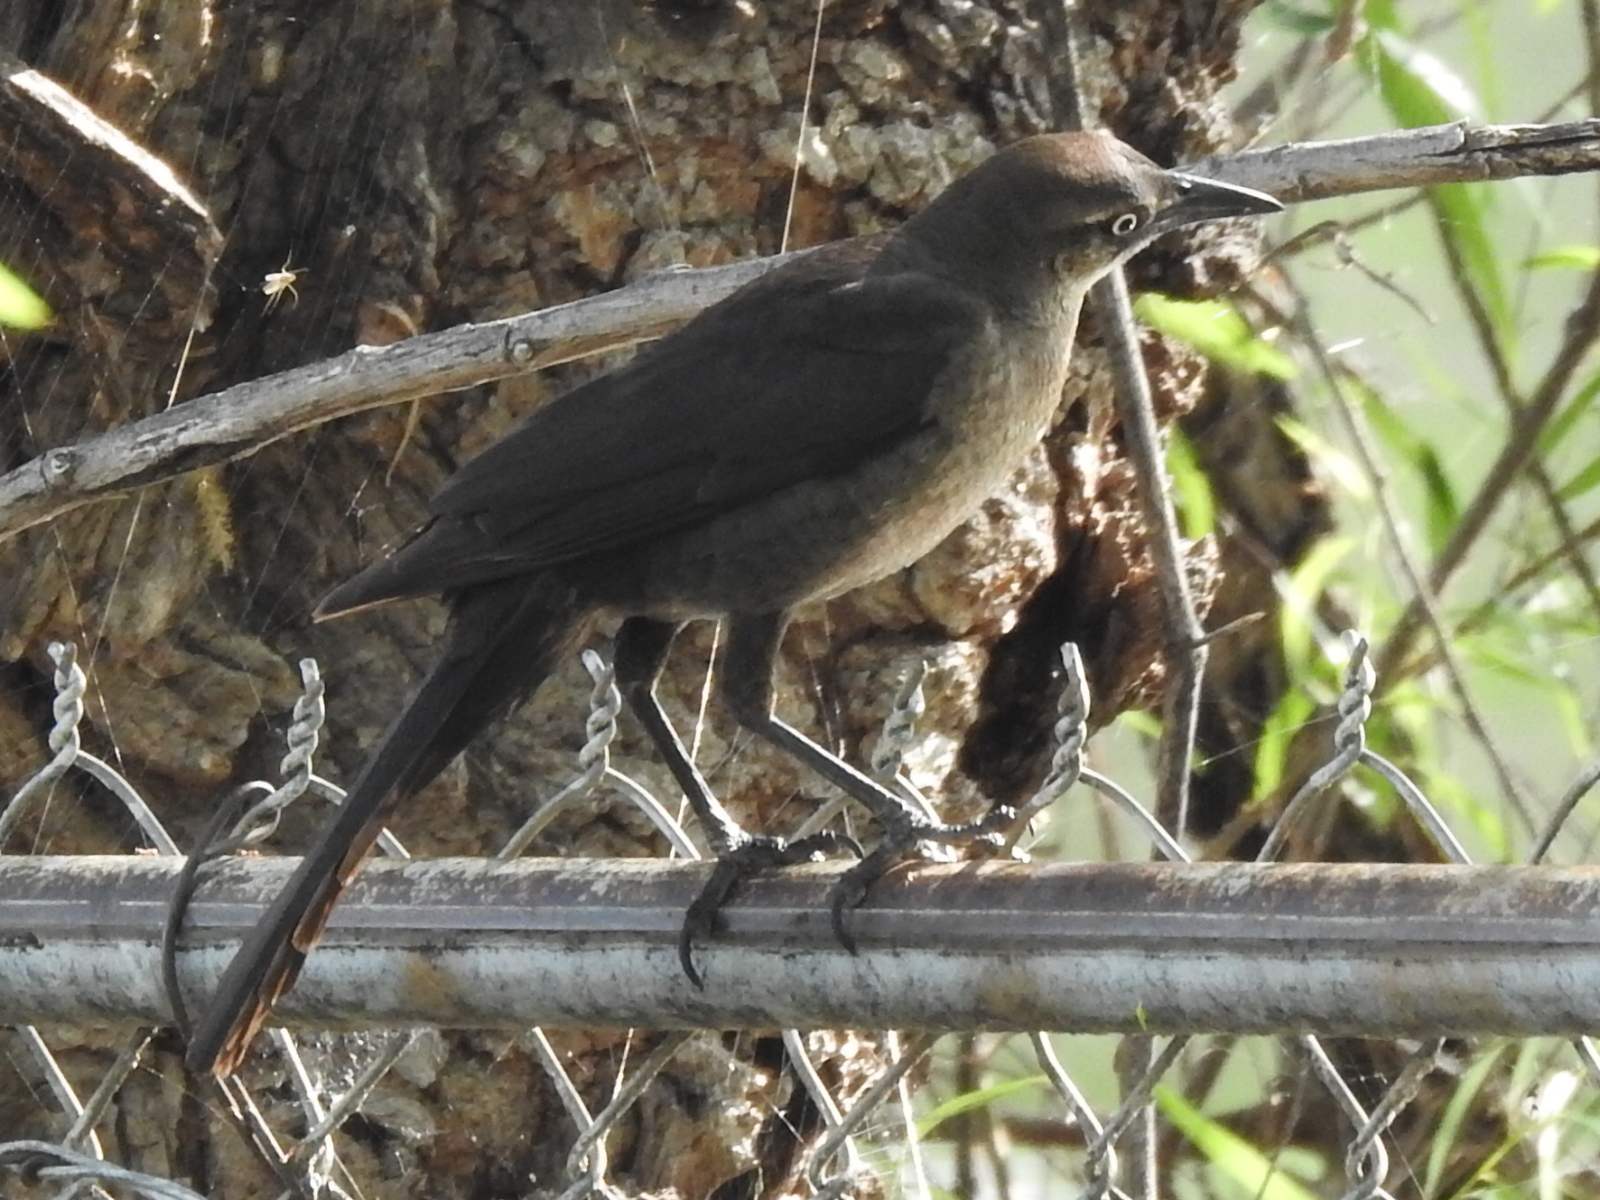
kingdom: Animalia
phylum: Chordata
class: Aves
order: Passeriformes
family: Icteridae
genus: Quiscalus
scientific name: Quiscalus mexicanus
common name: Great-tailed grackle
